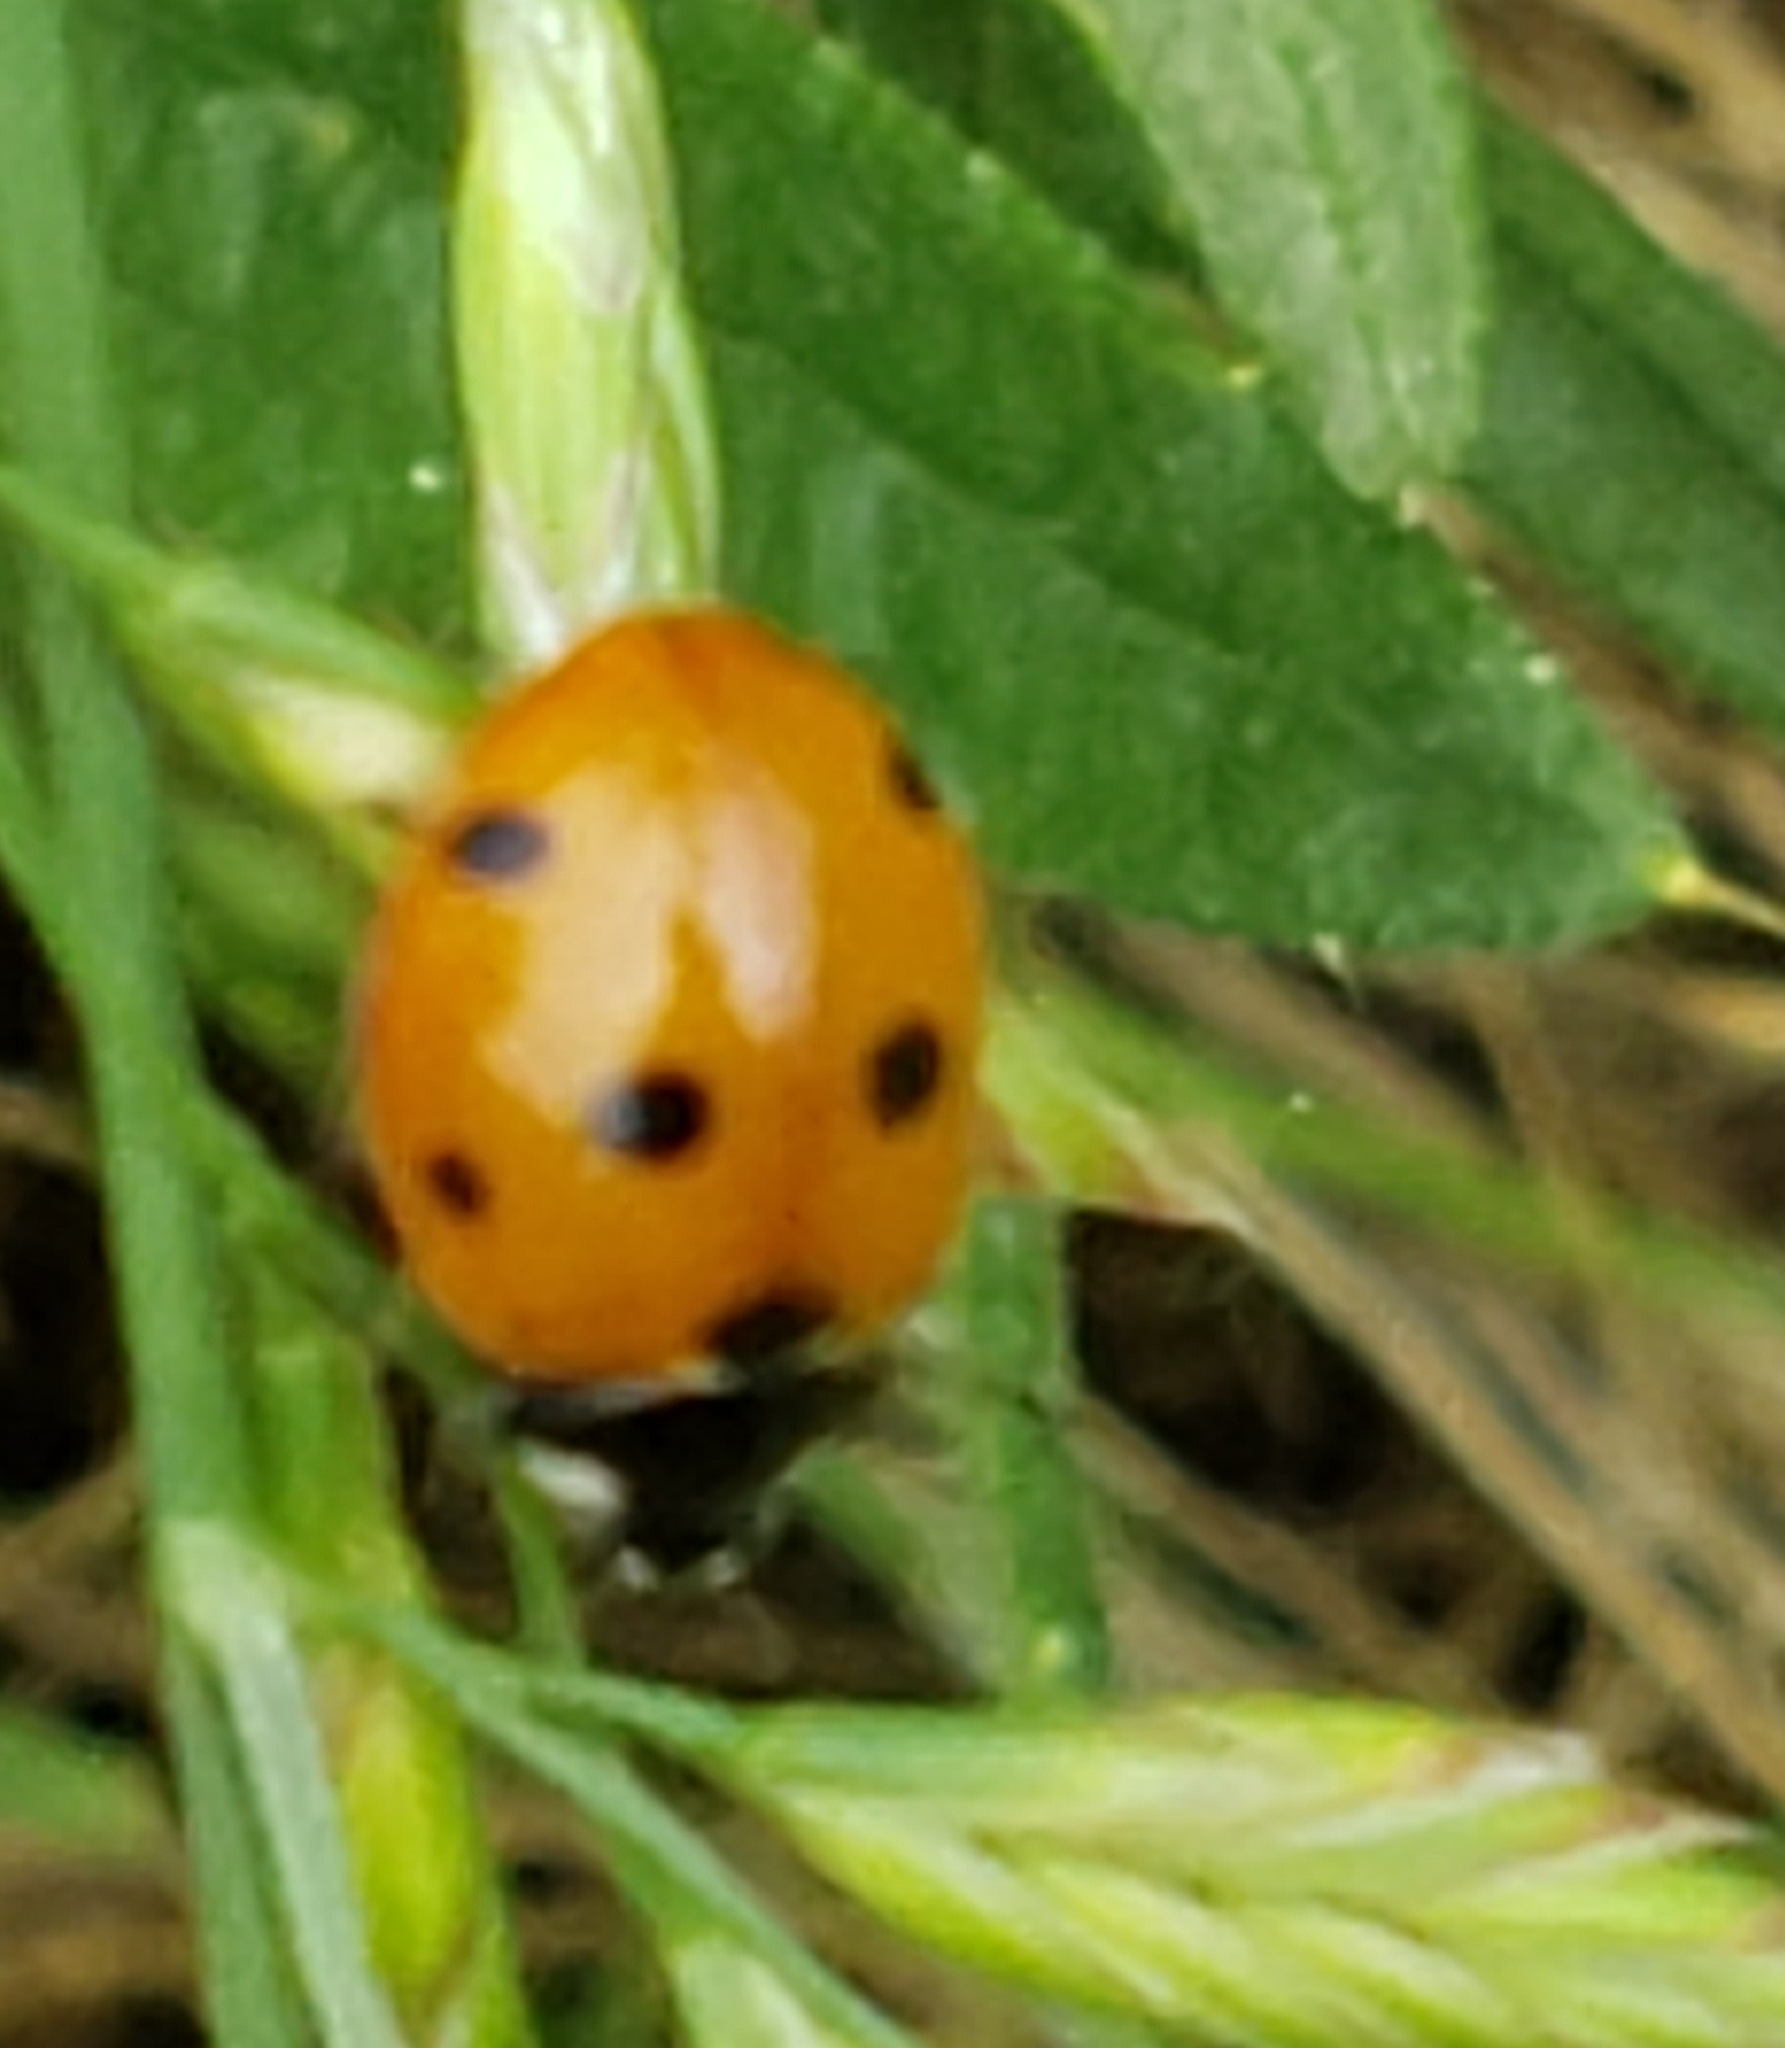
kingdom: Animalia
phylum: Arthropoda
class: Insecta
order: Coleoptera
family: Coccinellidae
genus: Coccinella
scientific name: Coccinella septempunctata
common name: Sevenspotted lady beetle
